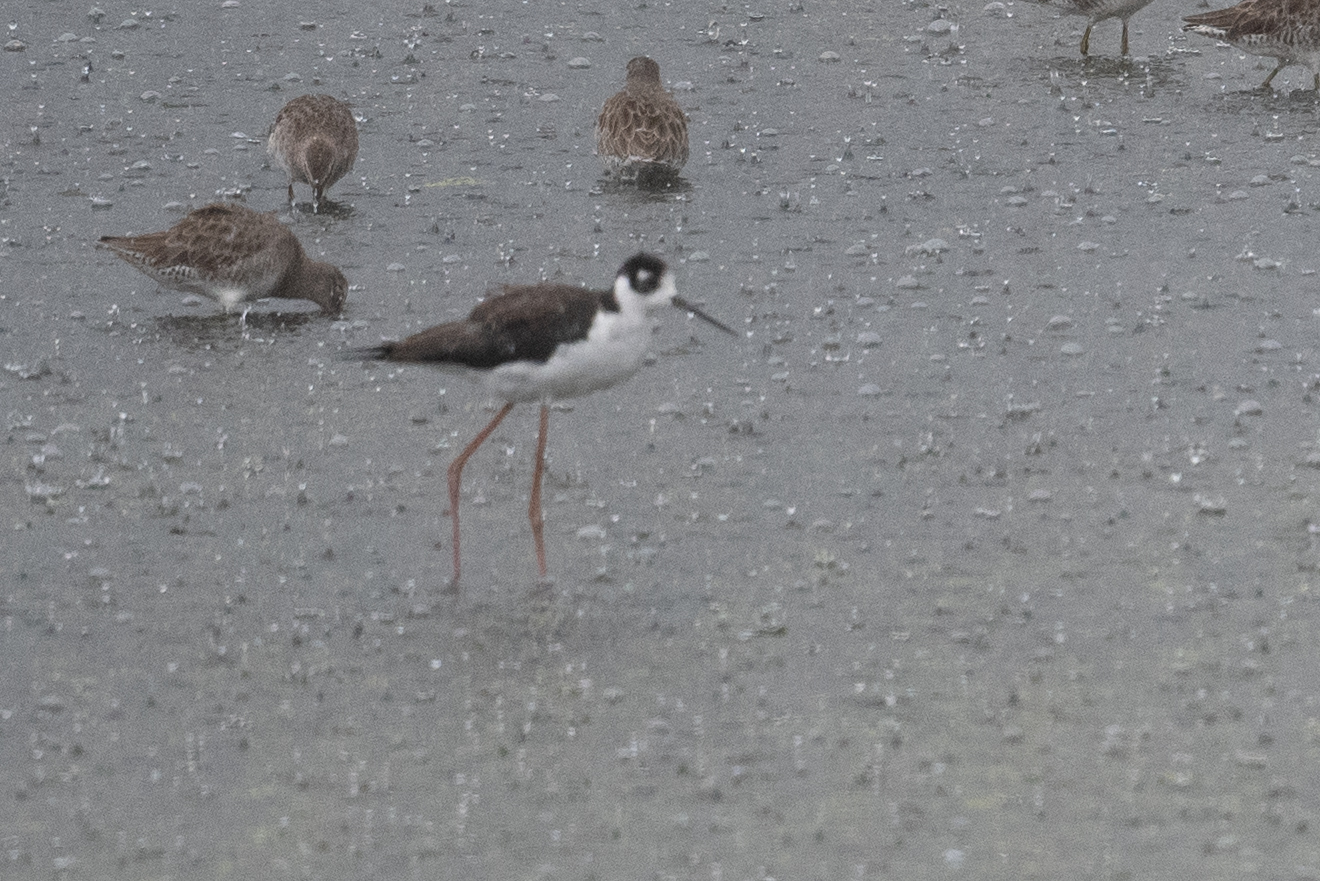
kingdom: Animalia
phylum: Chordata
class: Aves
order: Charadriiformes
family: Recurvirostridae
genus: Himantopus
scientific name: Himantopus mexicanus
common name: Black-necked stilt
